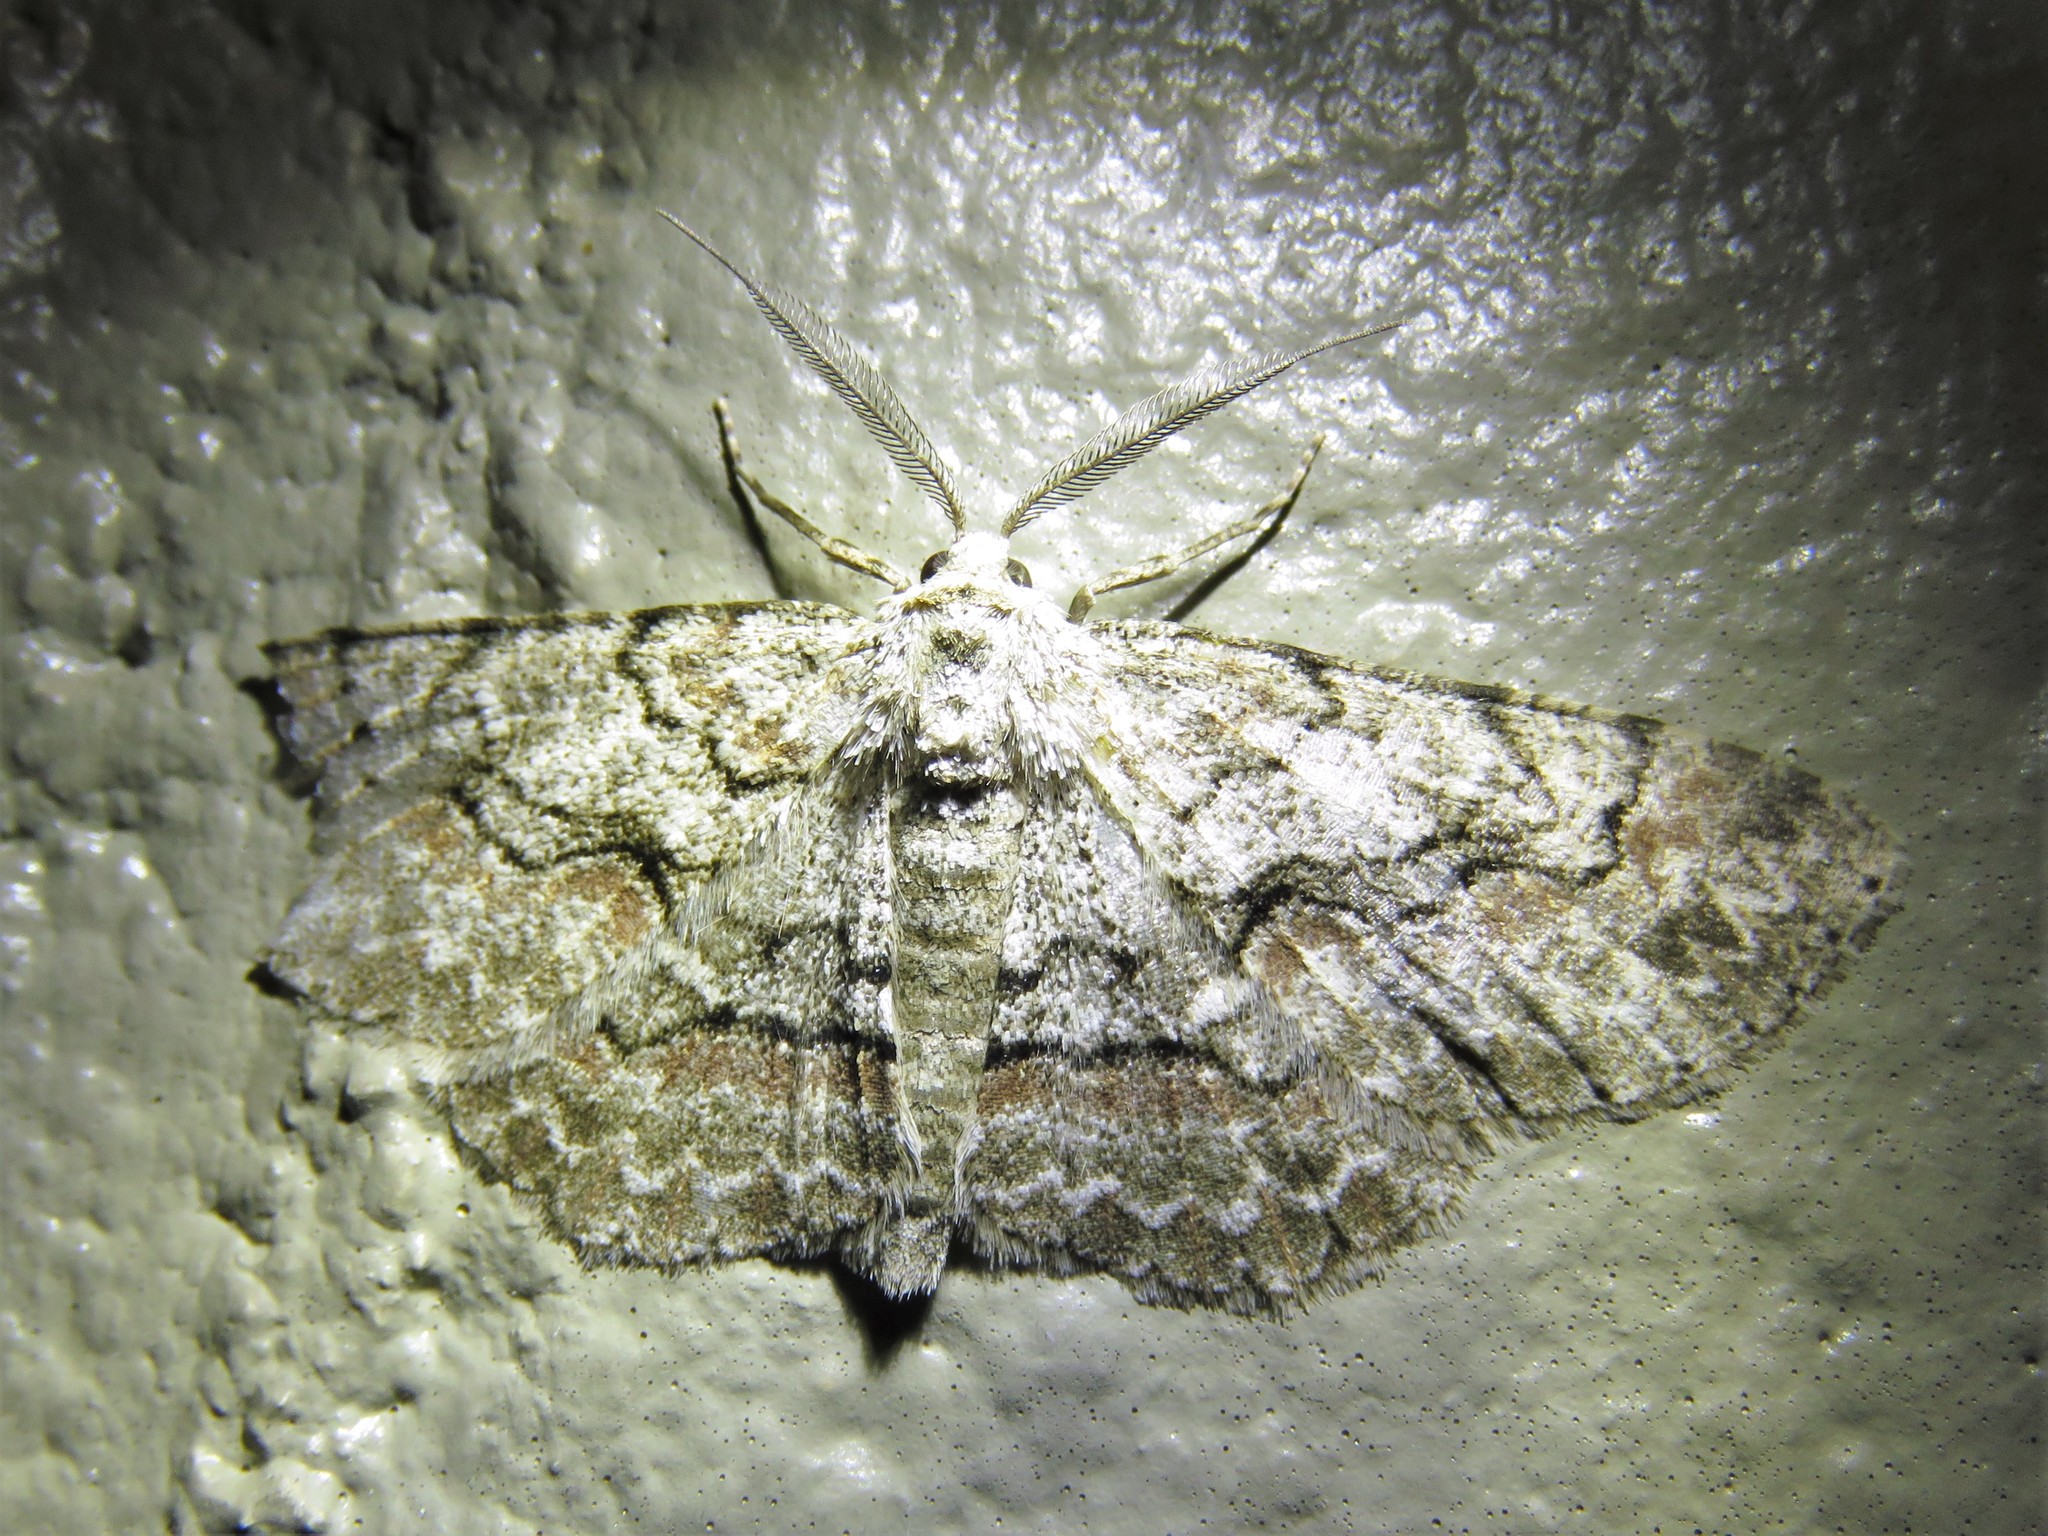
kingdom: Animalia
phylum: Arthropoda
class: Insecta
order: Lepidoptera
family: Geometridae
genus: Iridopsis
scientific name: Iridopsis defectaria
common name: Brown-shaded gray
